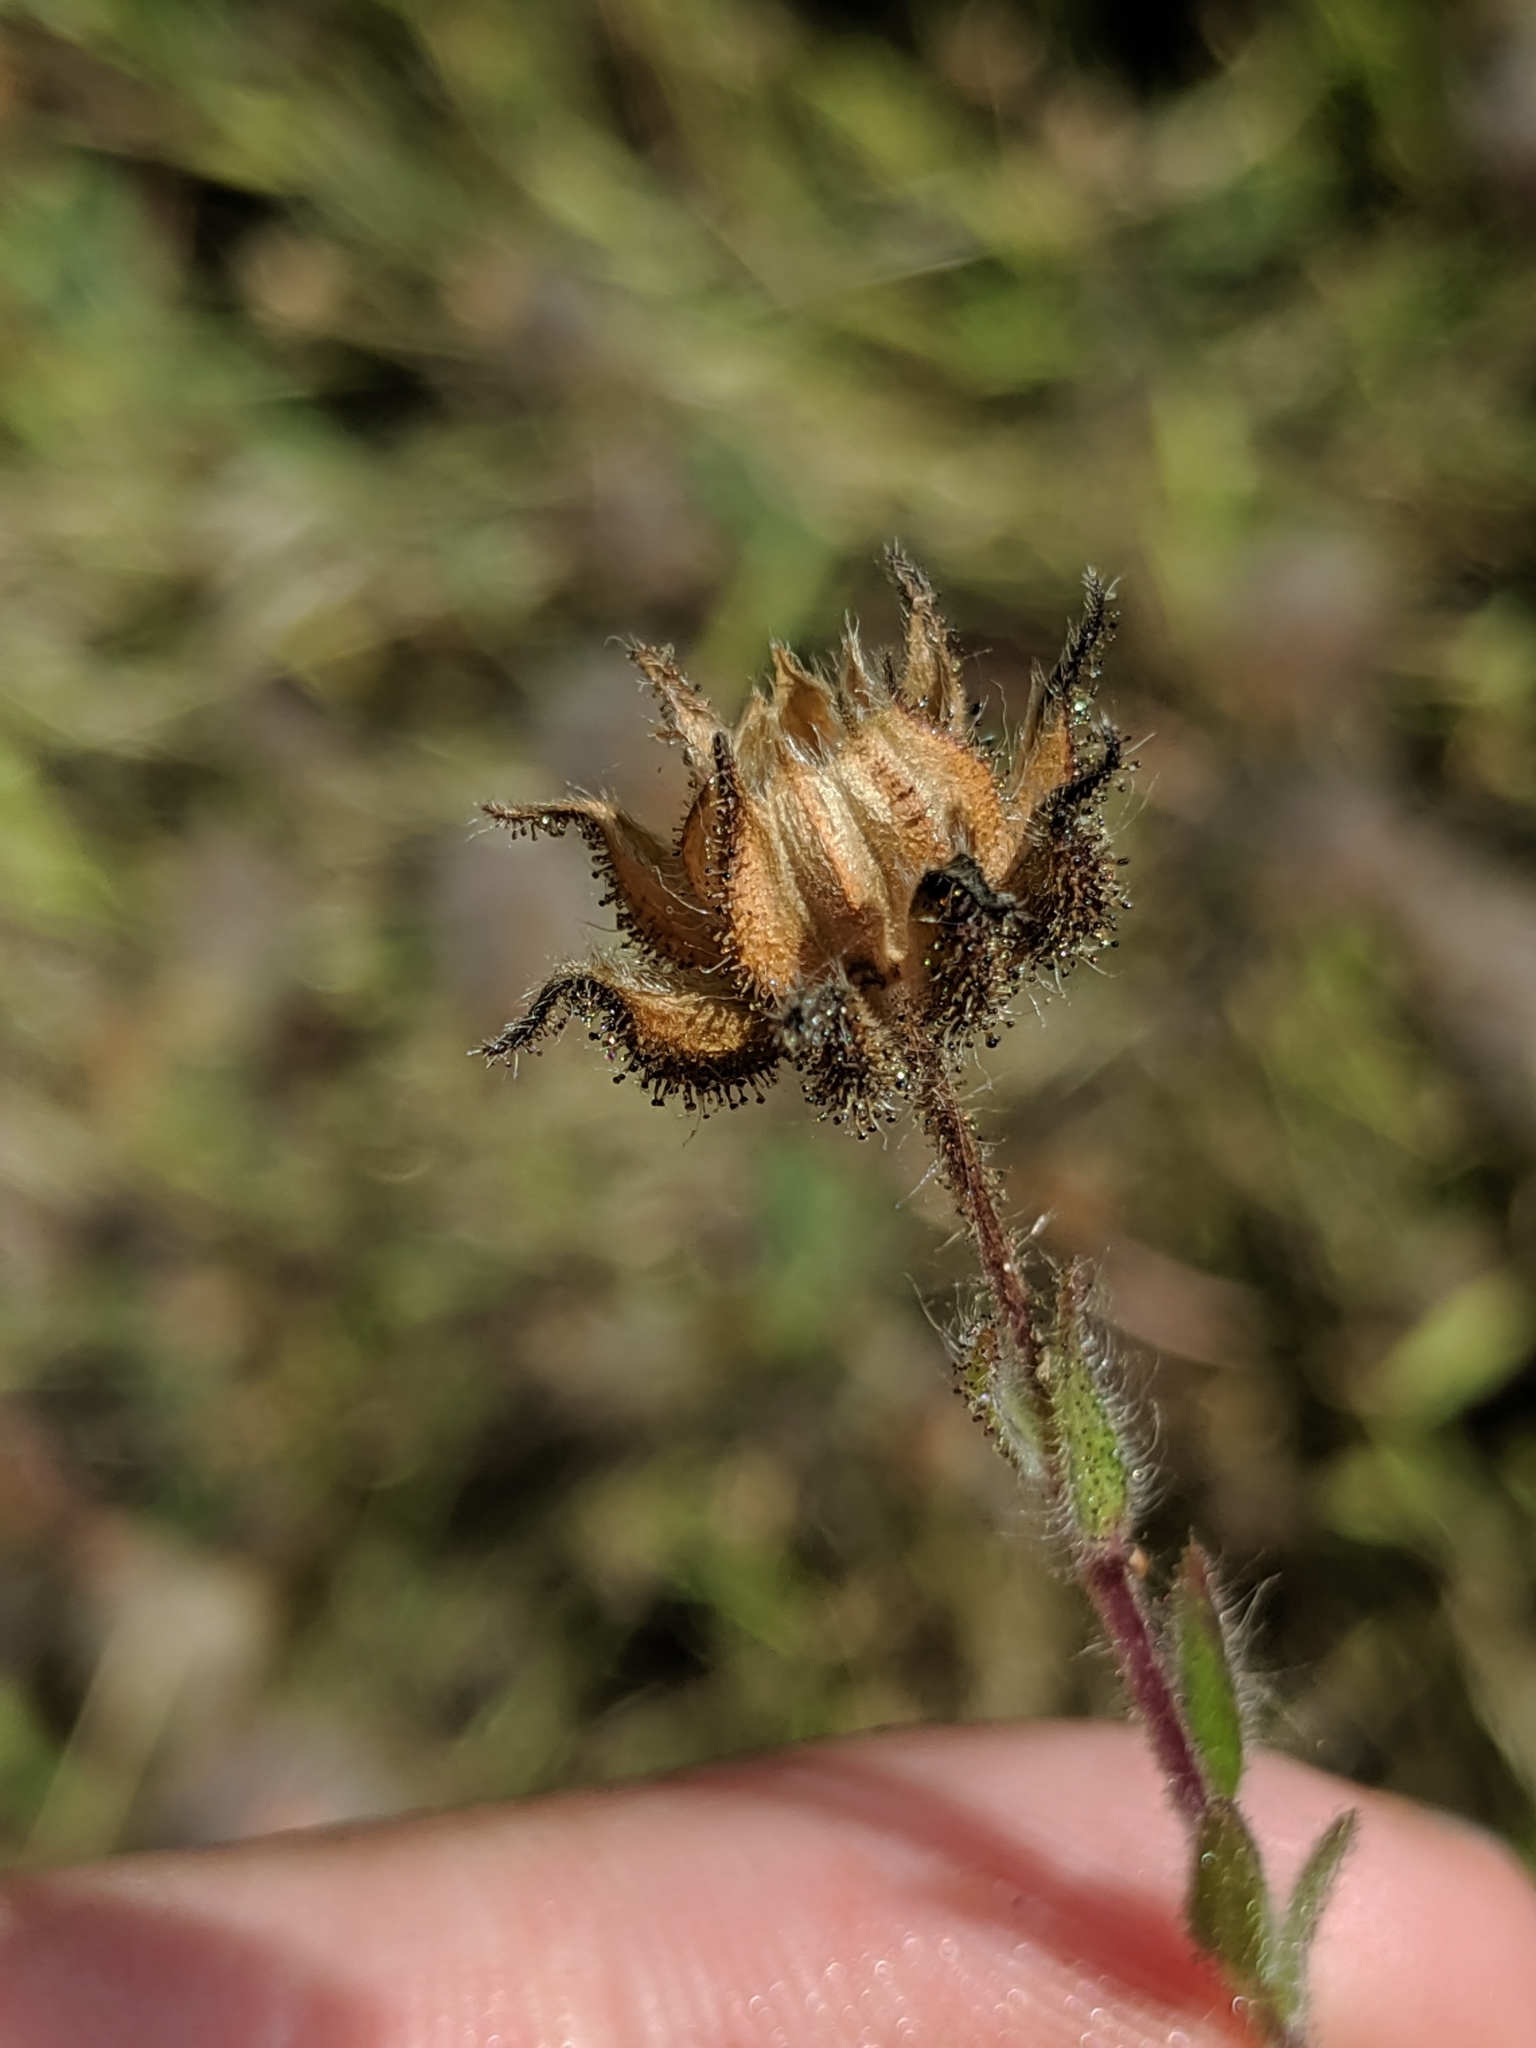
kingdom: Plantae
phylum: Tracheophyta
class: Magnoliopsida
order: Asterales
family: Asteraceae
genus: Madia
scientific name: Madia gracilis
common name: Grassy tarweed
